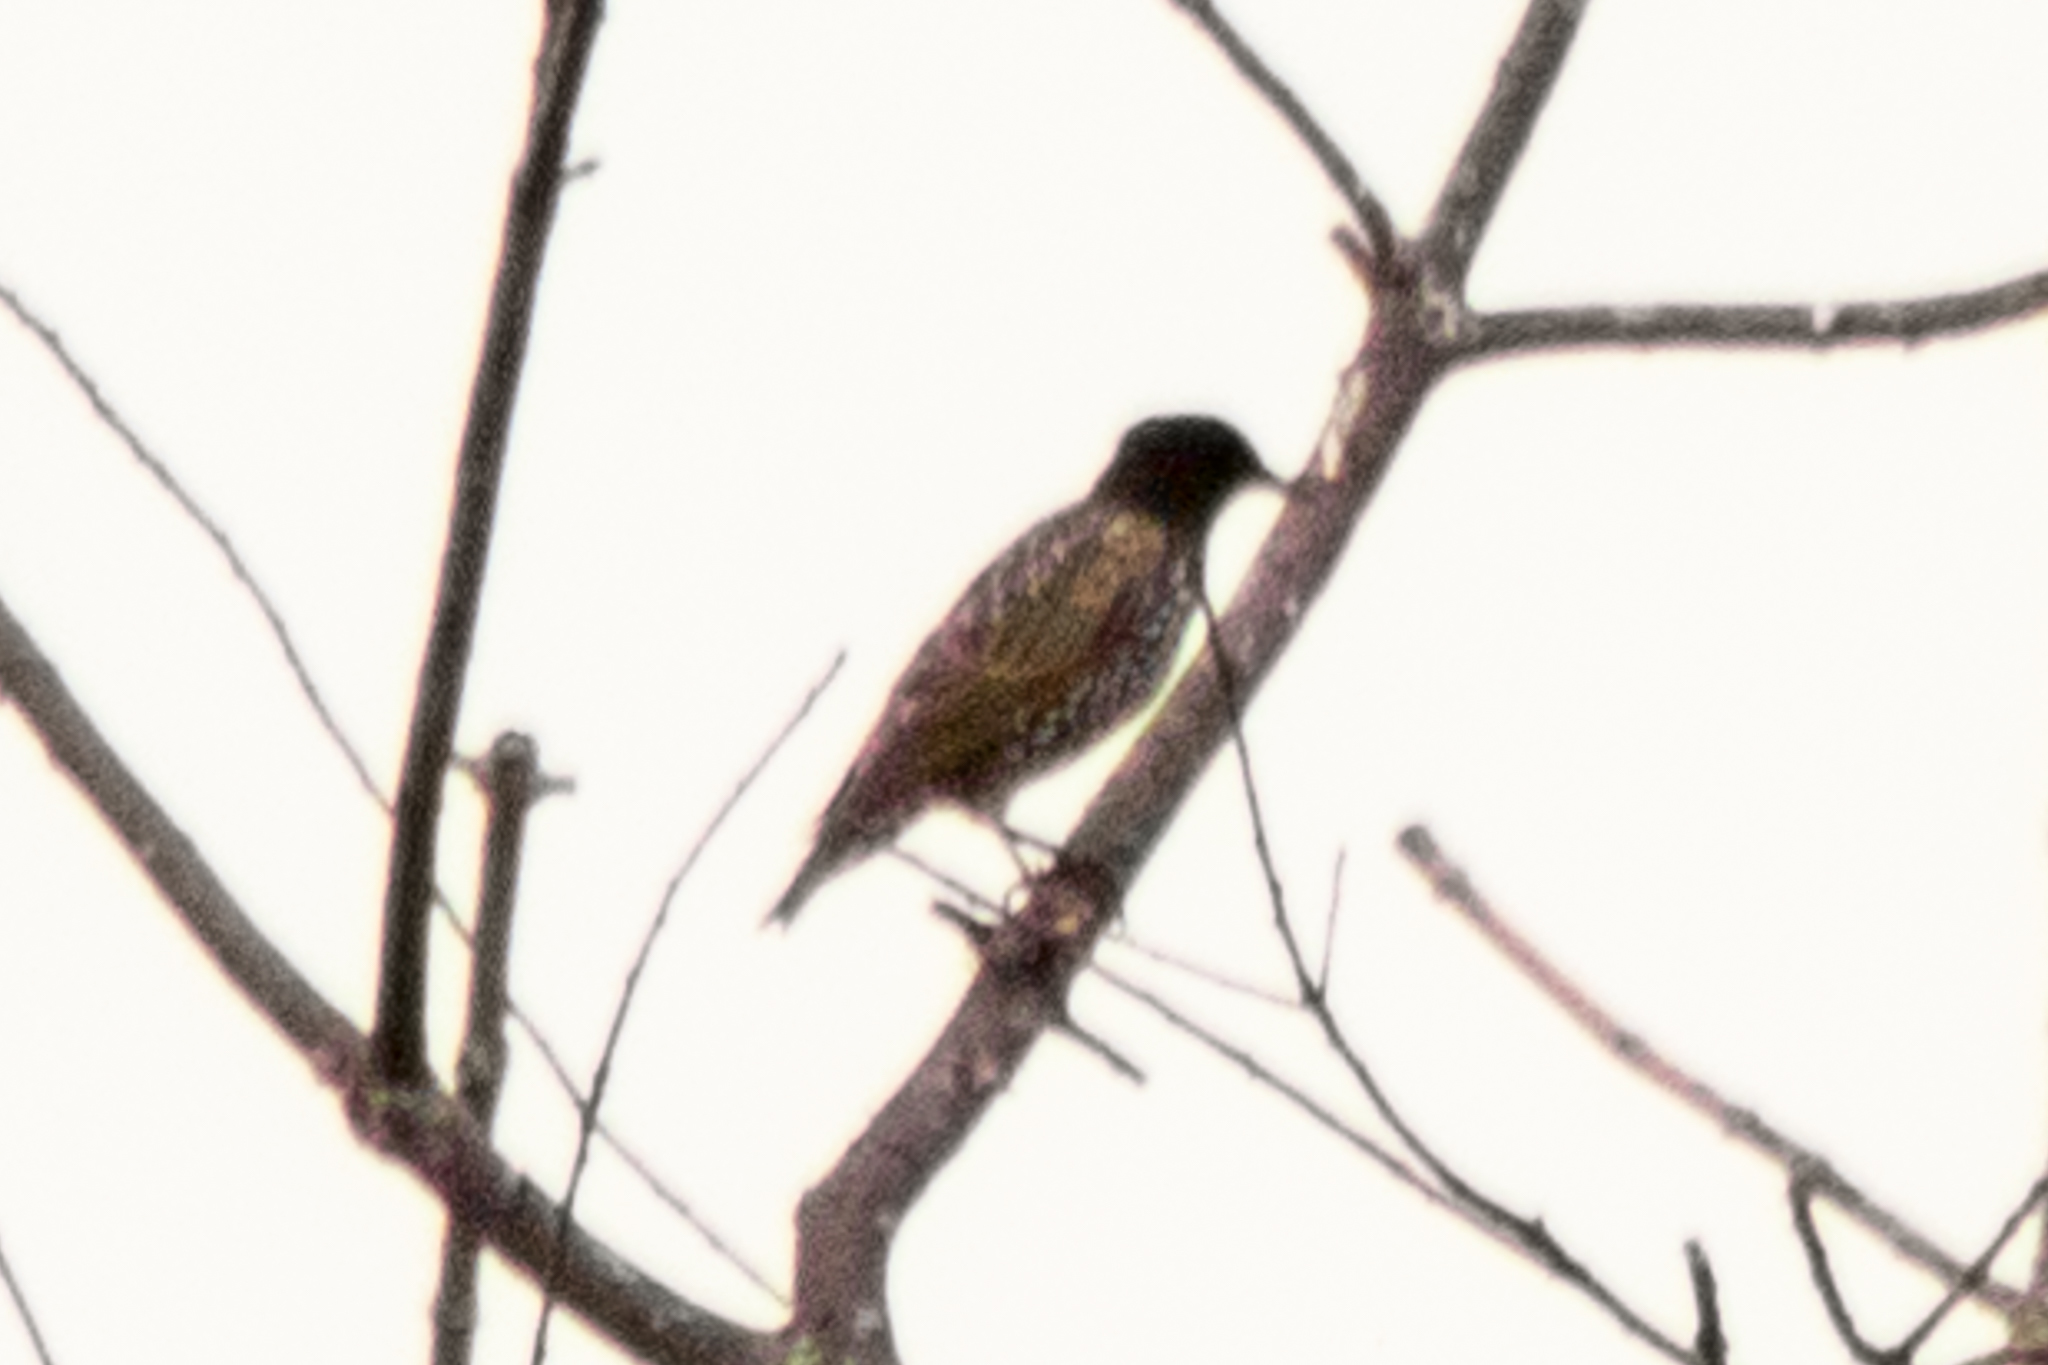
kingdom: Animalia
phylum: Chordata
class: Aves
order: Passeriformes
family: Sturnidae
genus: Sturnus
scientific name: Sturnus vulgaris
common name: Common starling
